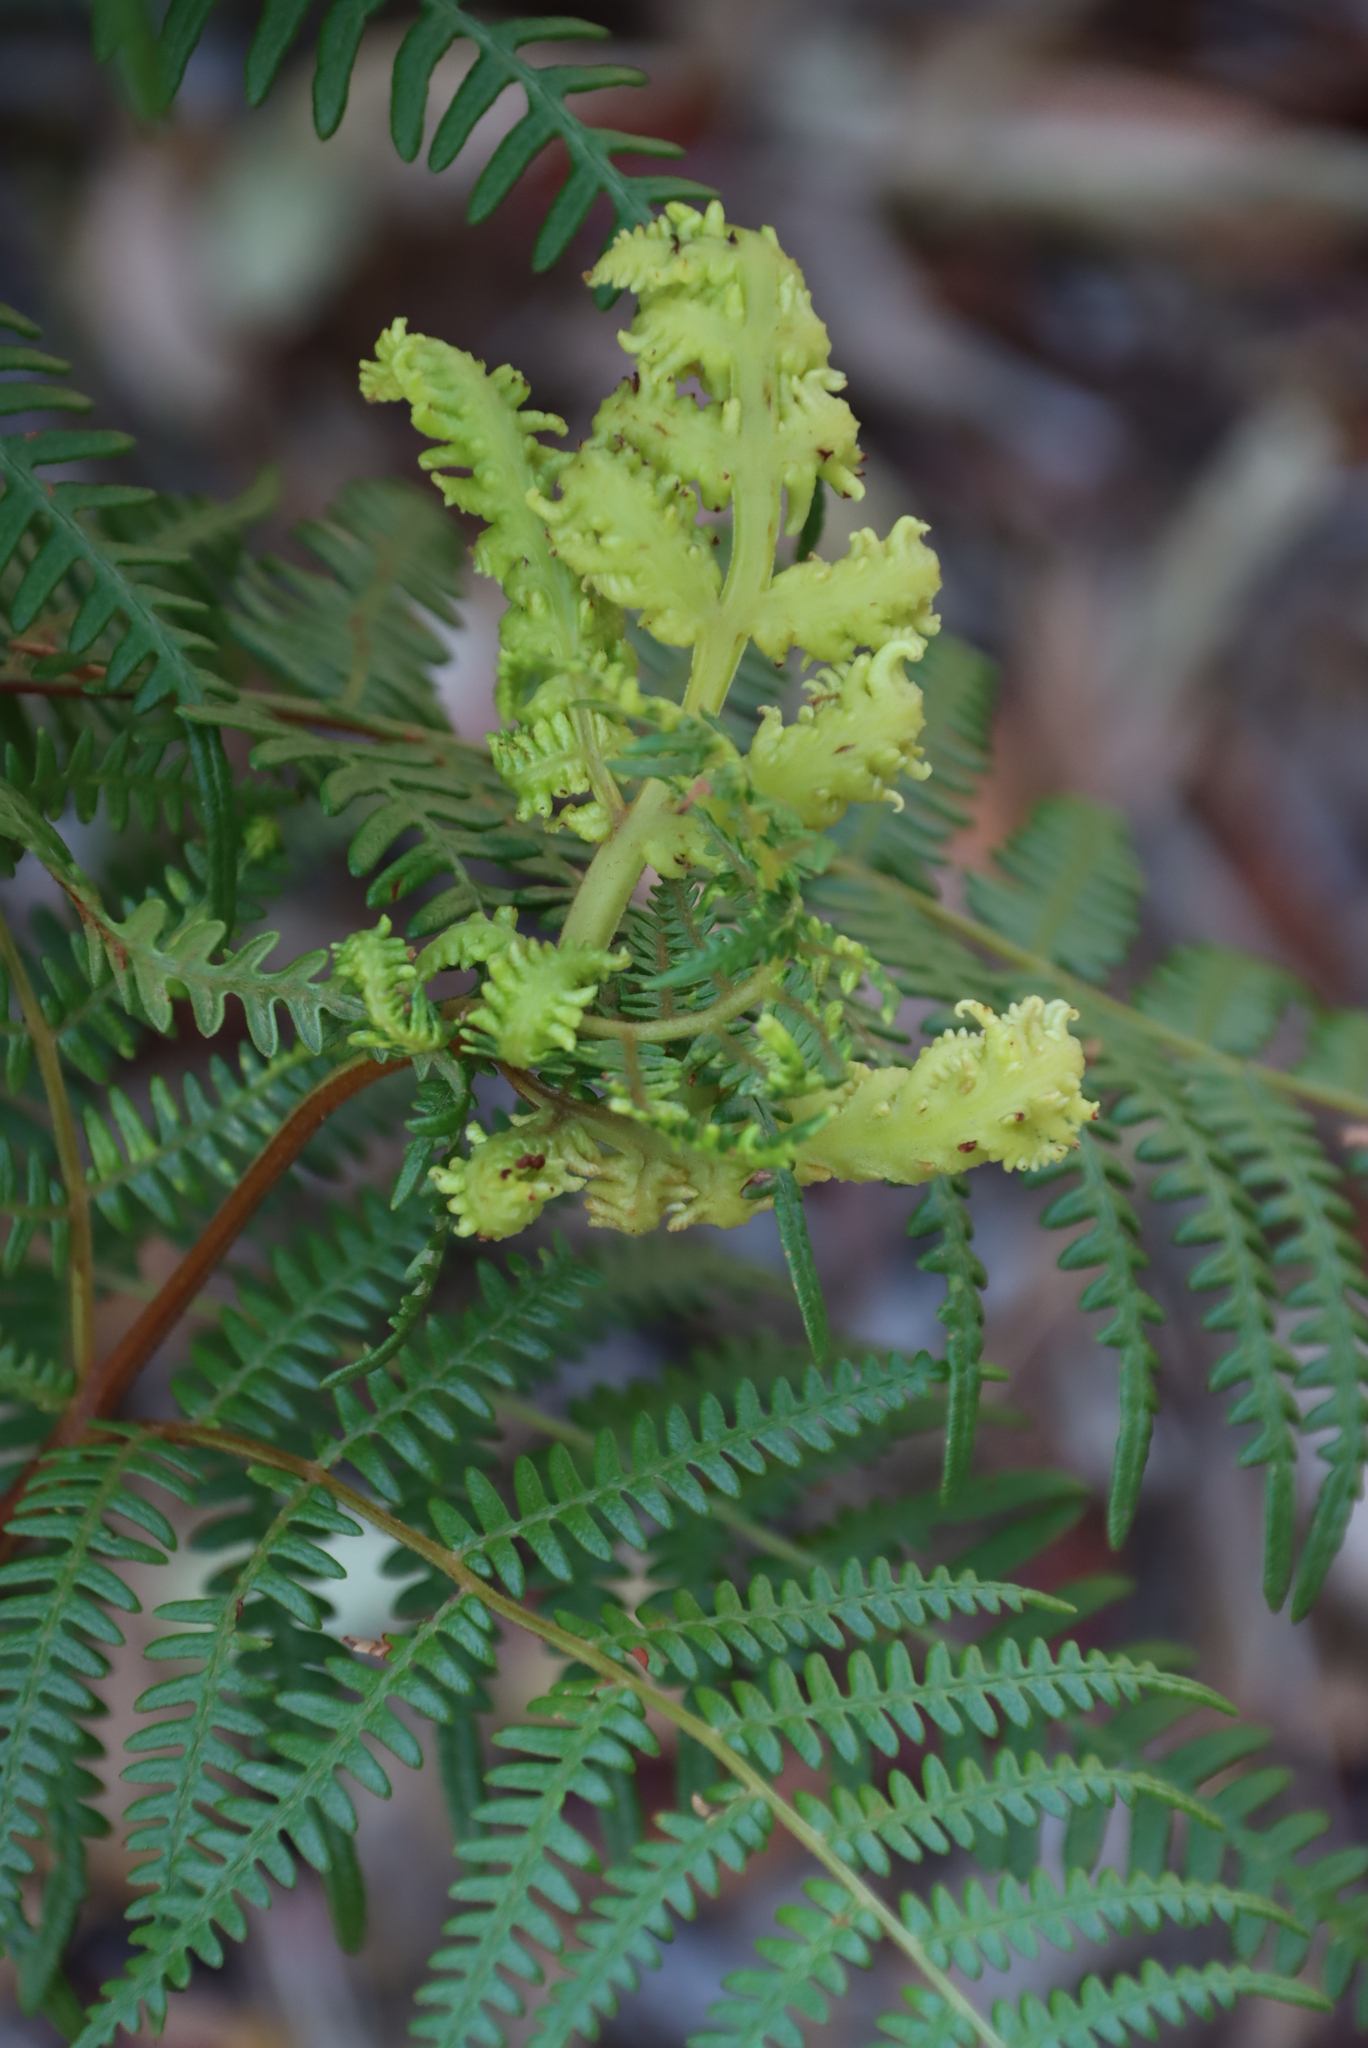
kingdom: Plantae
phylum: Tracheophyta
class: Polypodiopsida
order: Polypodiales
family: Dennstaedtiaceae
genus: Pteridium
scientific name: Pteridium aquilinum
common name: Bracken
